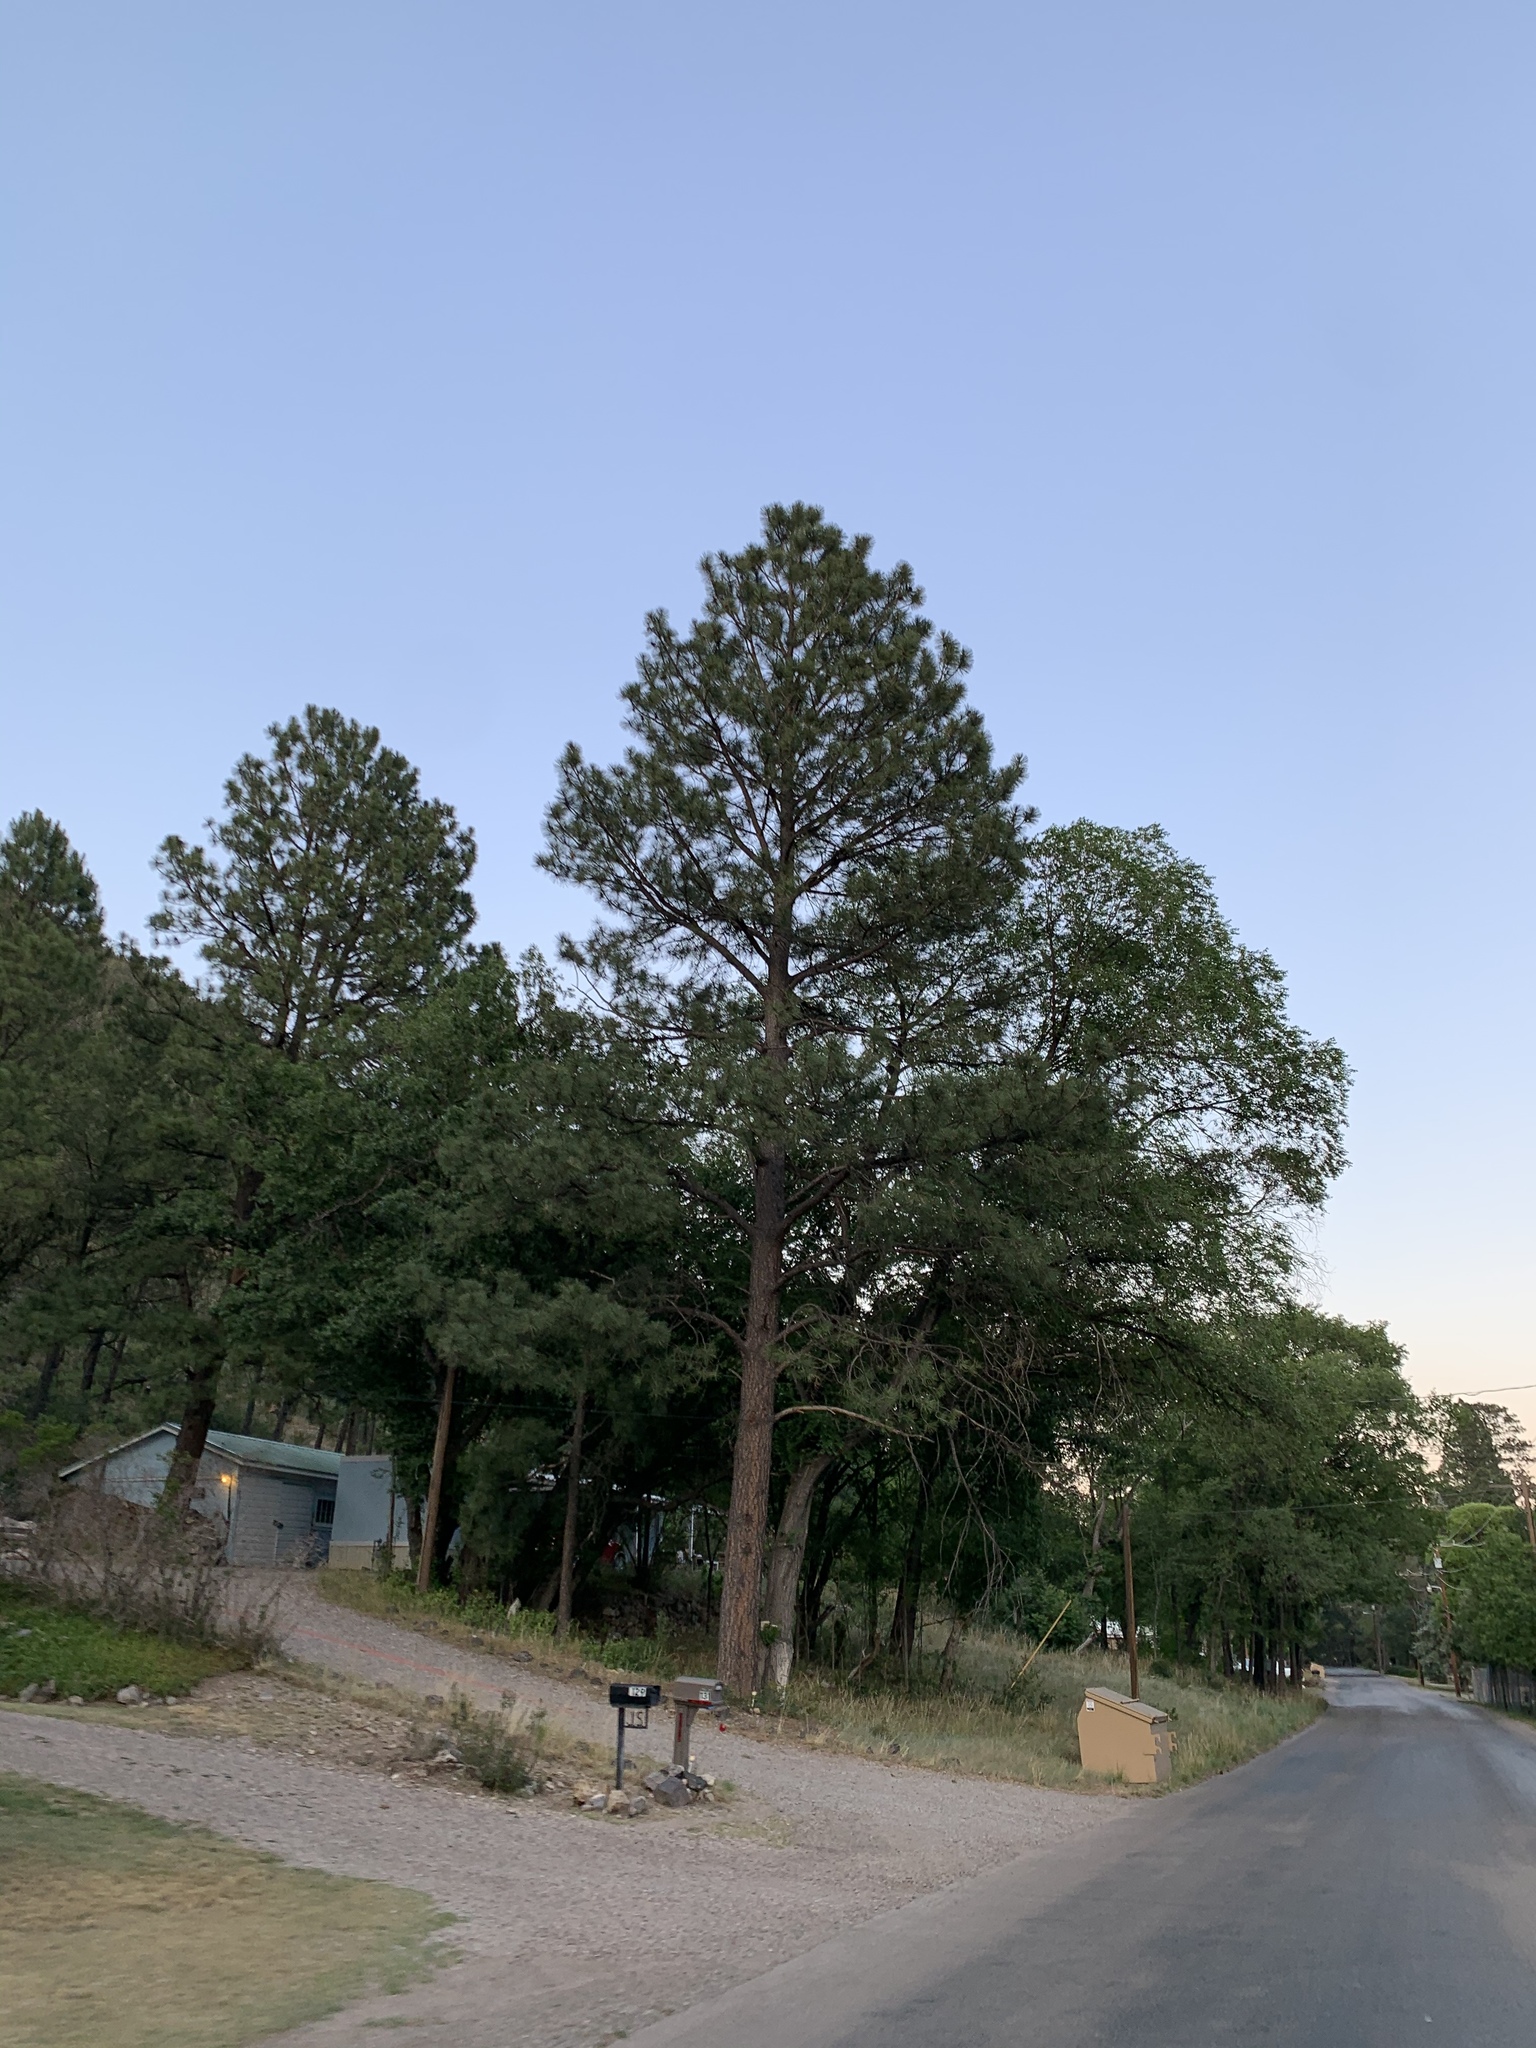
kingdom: Plantae
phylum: Tracheophyta
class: Pinopsida
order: Pinales
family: Pinaceae
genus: Pinus
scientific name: Pinus ponderosa
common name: Western yellow-pine
